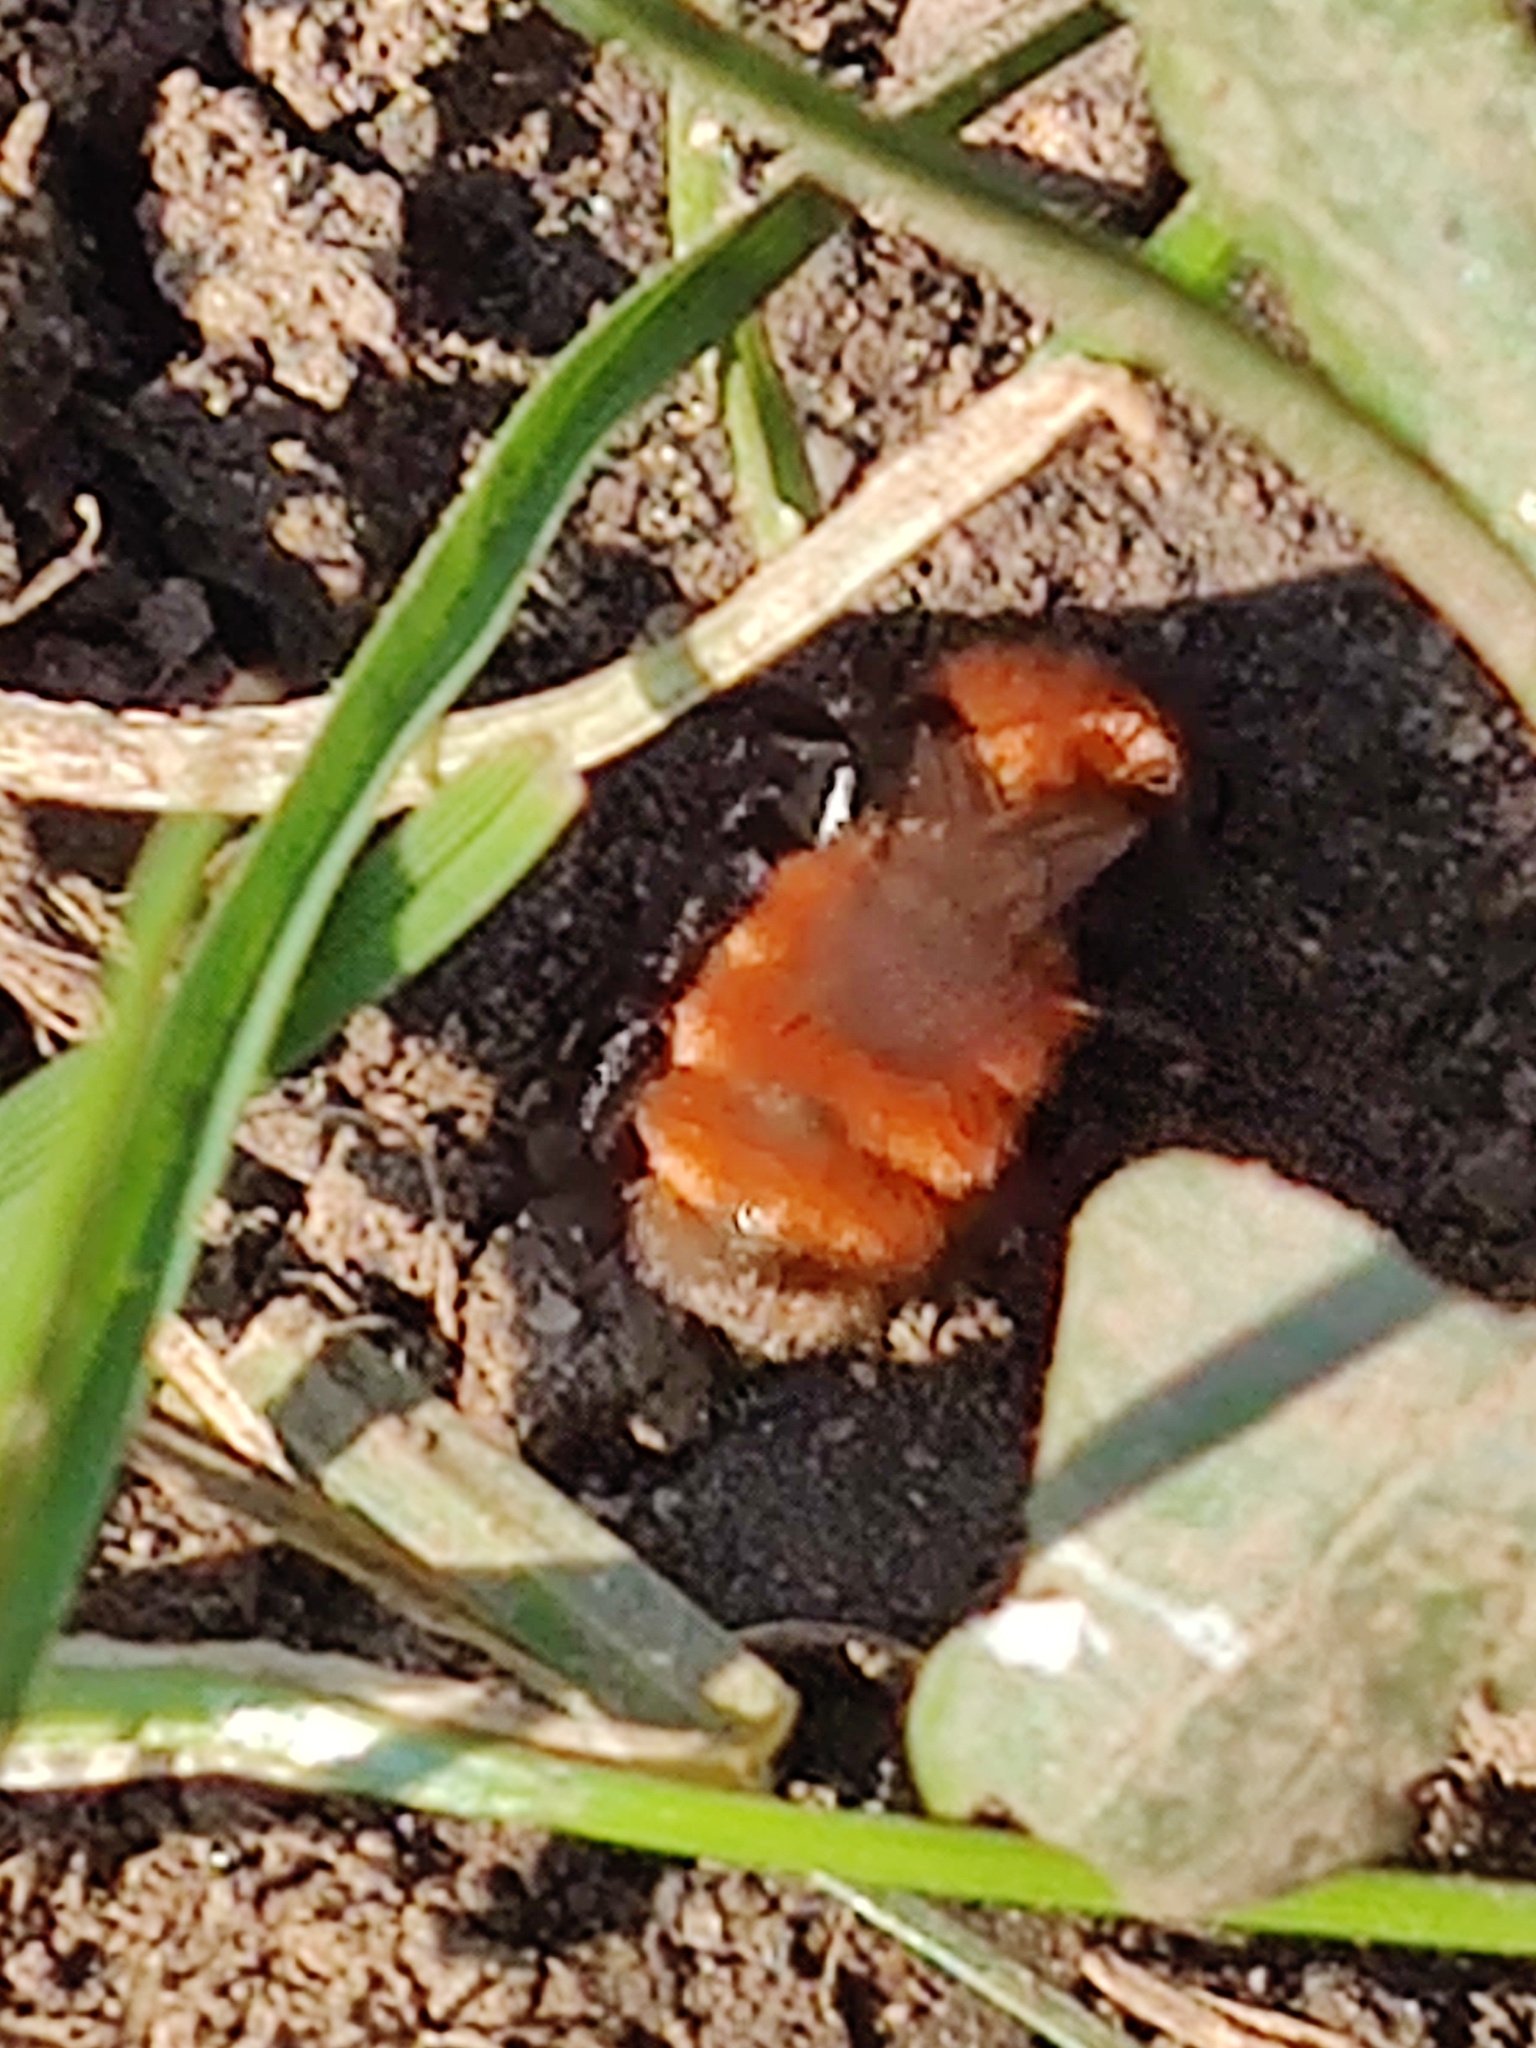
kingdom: Animalia
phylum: Arthropoda
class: Insecta
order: Hymenoptera
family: Andrenidae
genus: Andrena
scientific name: Andrena fulva
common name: Tawny mining bee
